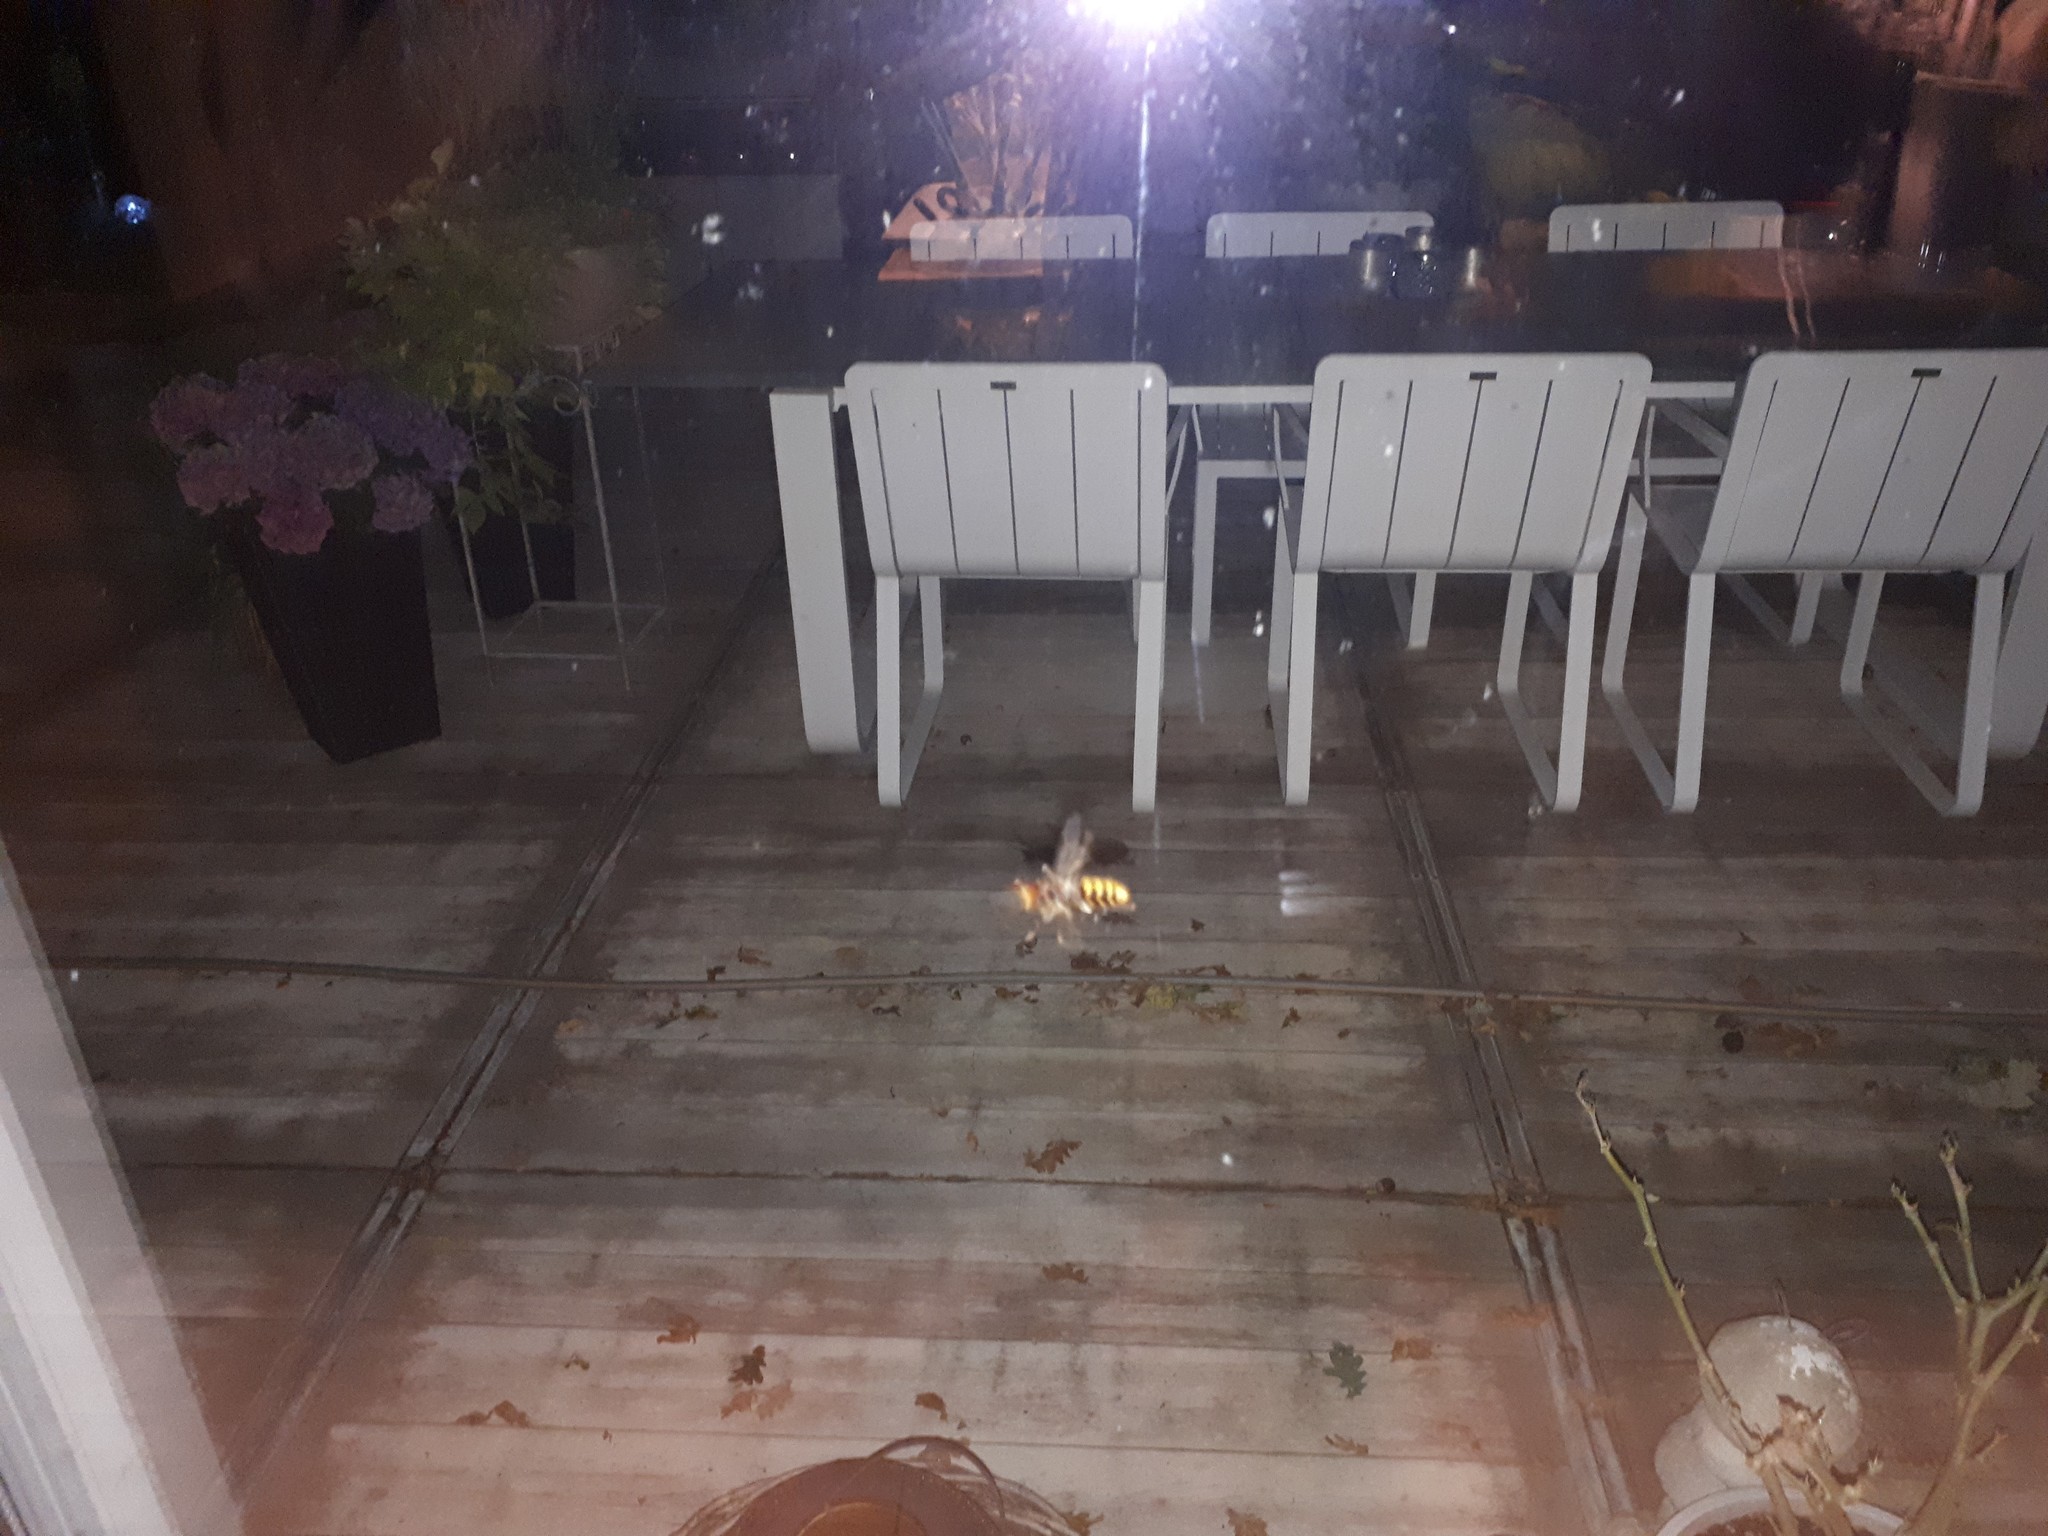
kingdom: Animalia
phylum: Arthropoda
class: Insecta
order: Hymenoptera
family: Vespidae
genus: Vespa
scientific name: Vespa crabro
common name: Hornet
